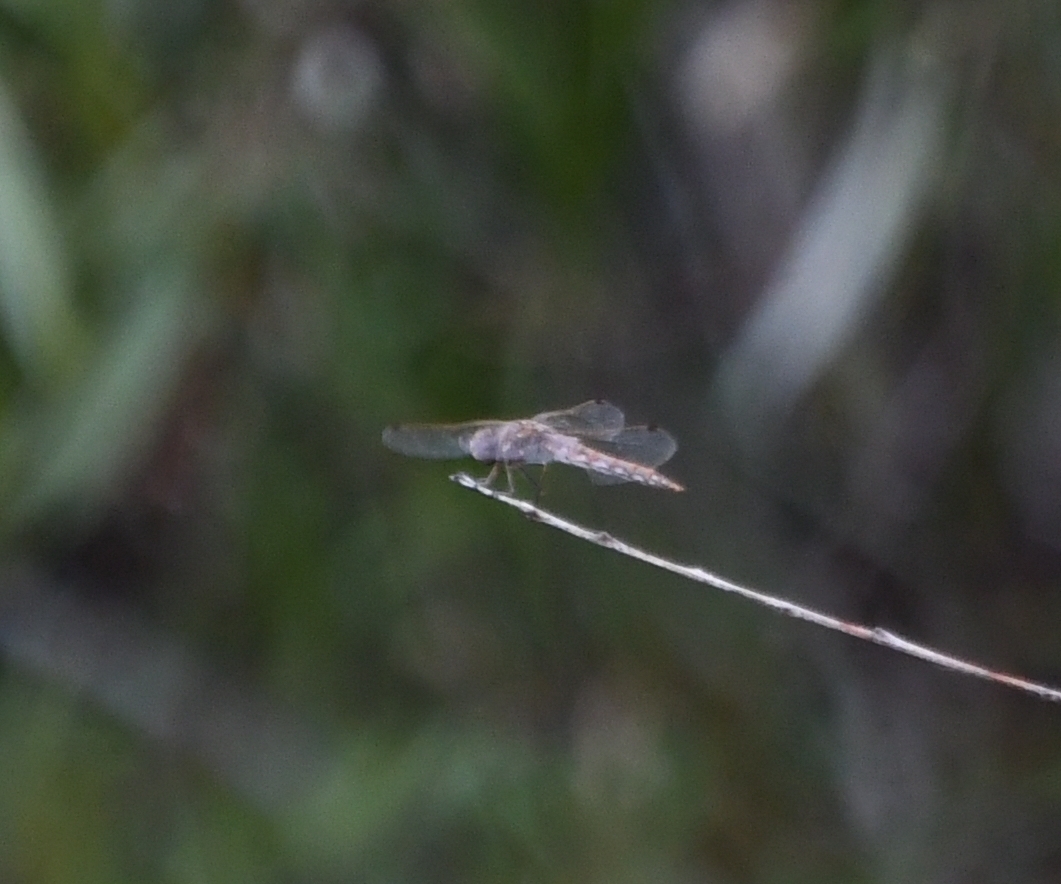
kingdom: Animalia
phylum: Arthropoda
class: Insecta
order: Odonata
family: Libellulidae
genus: Sympetrum
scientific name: Sympetrum corruptum
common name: Variegated meadowhawk
